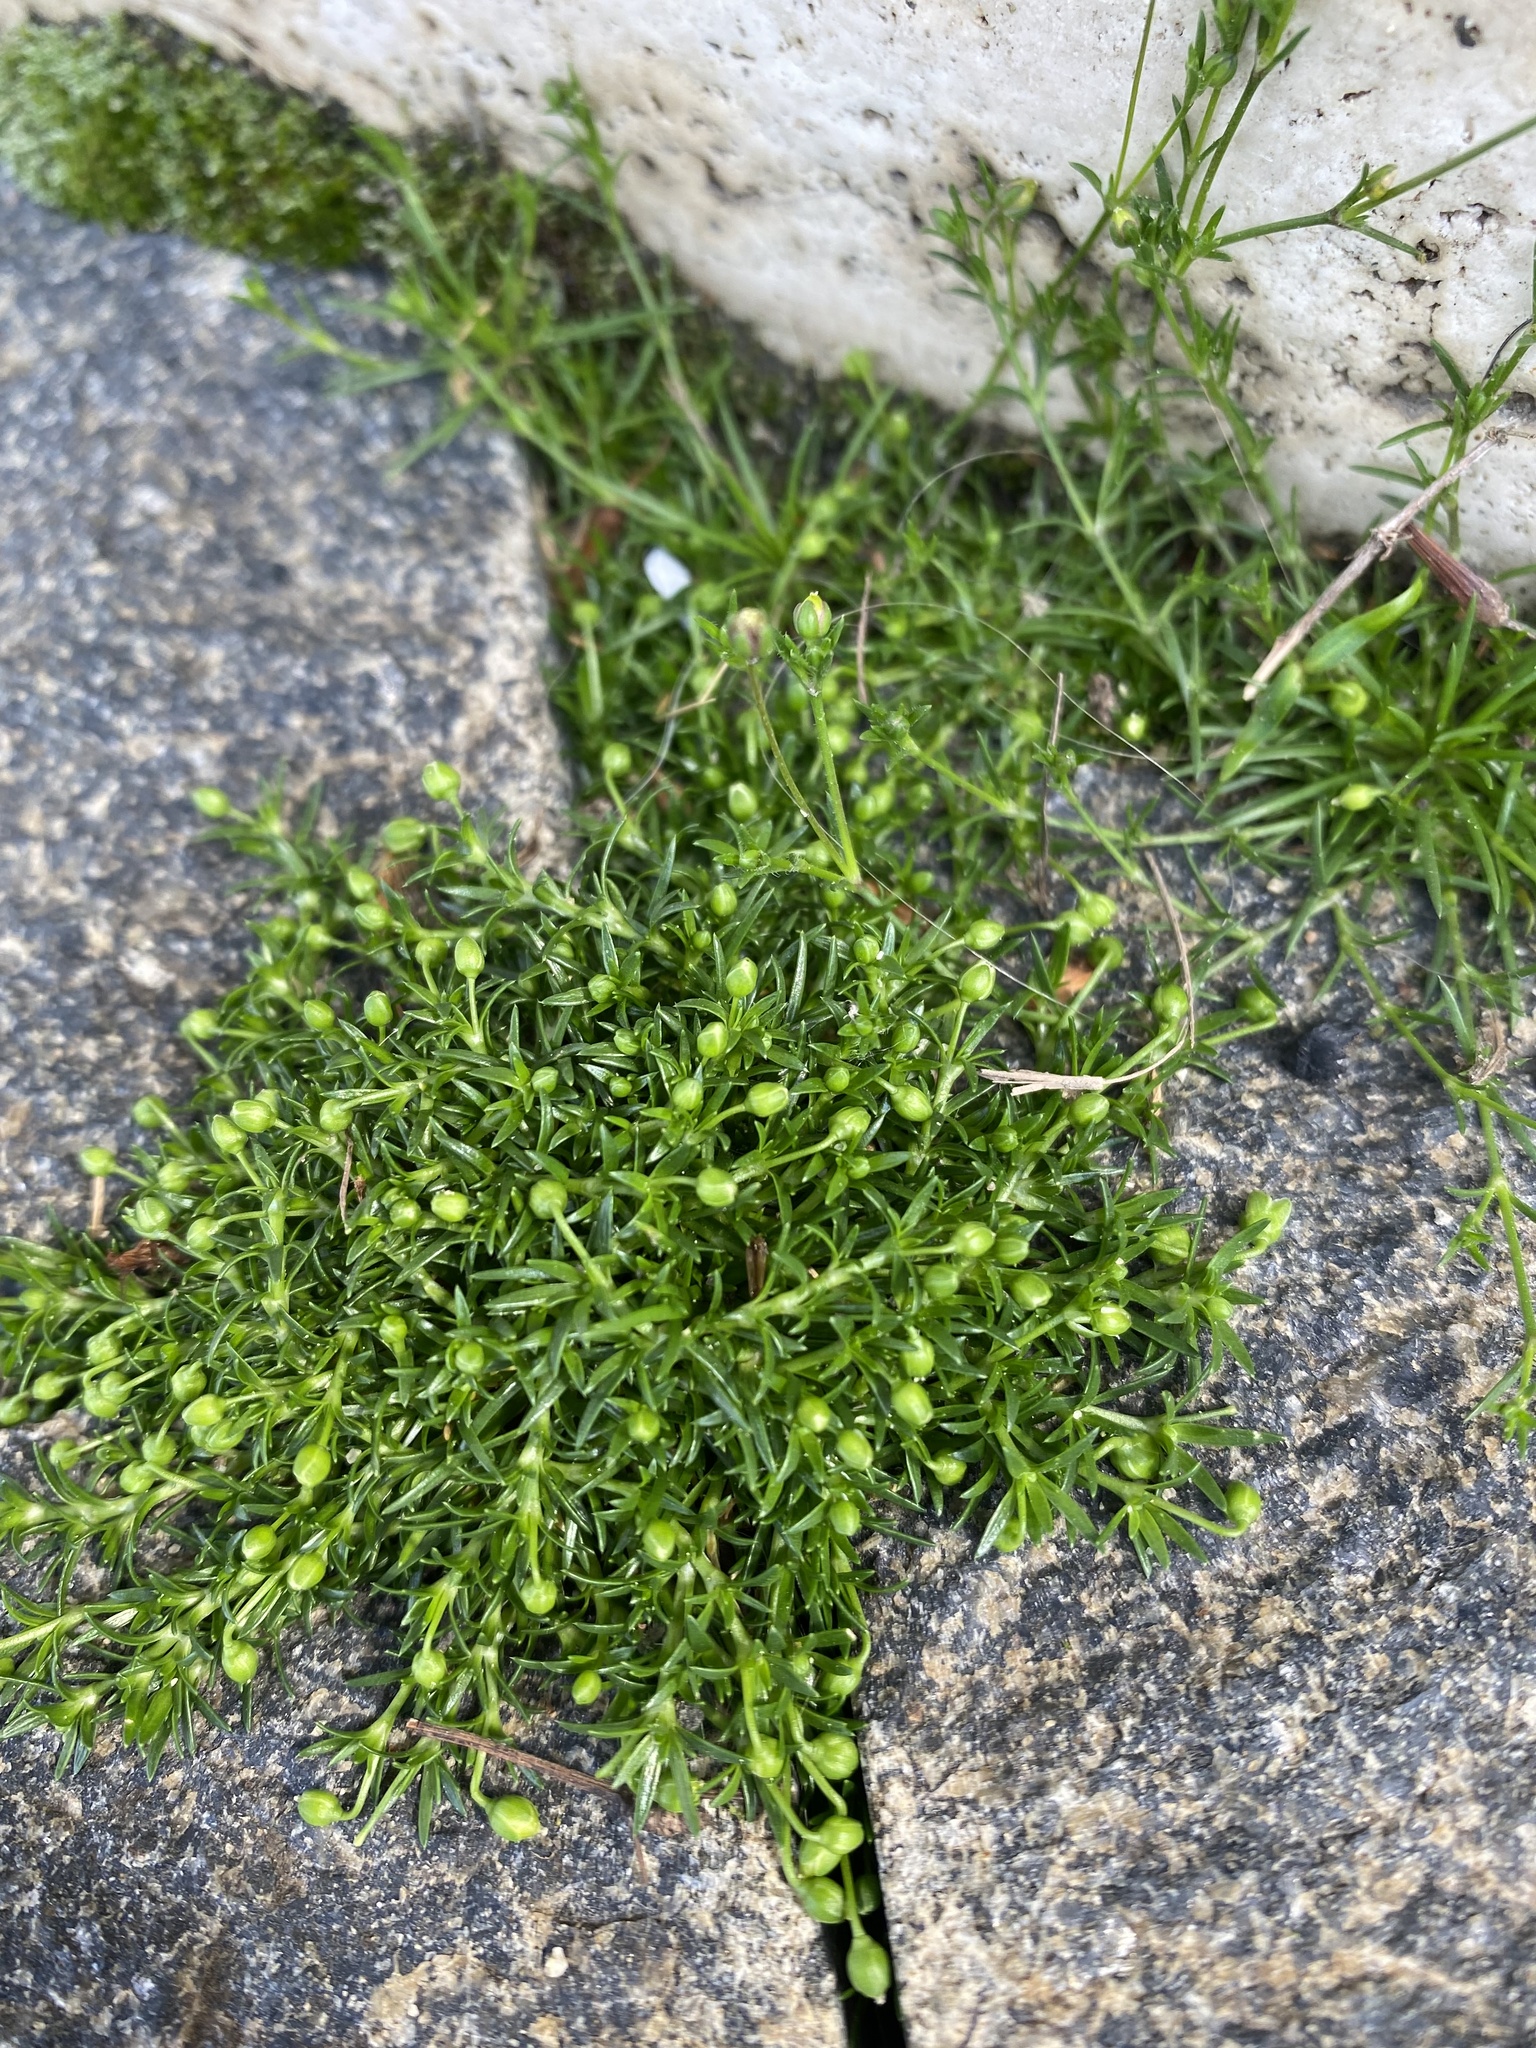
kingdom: Plantae
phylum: Tracheophyta
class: Magnoliopsida
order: Caryophyllales
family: Caryophyllaceae
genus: Sagina
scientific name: Sagina procumbens
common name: Procumbent pearlwort
